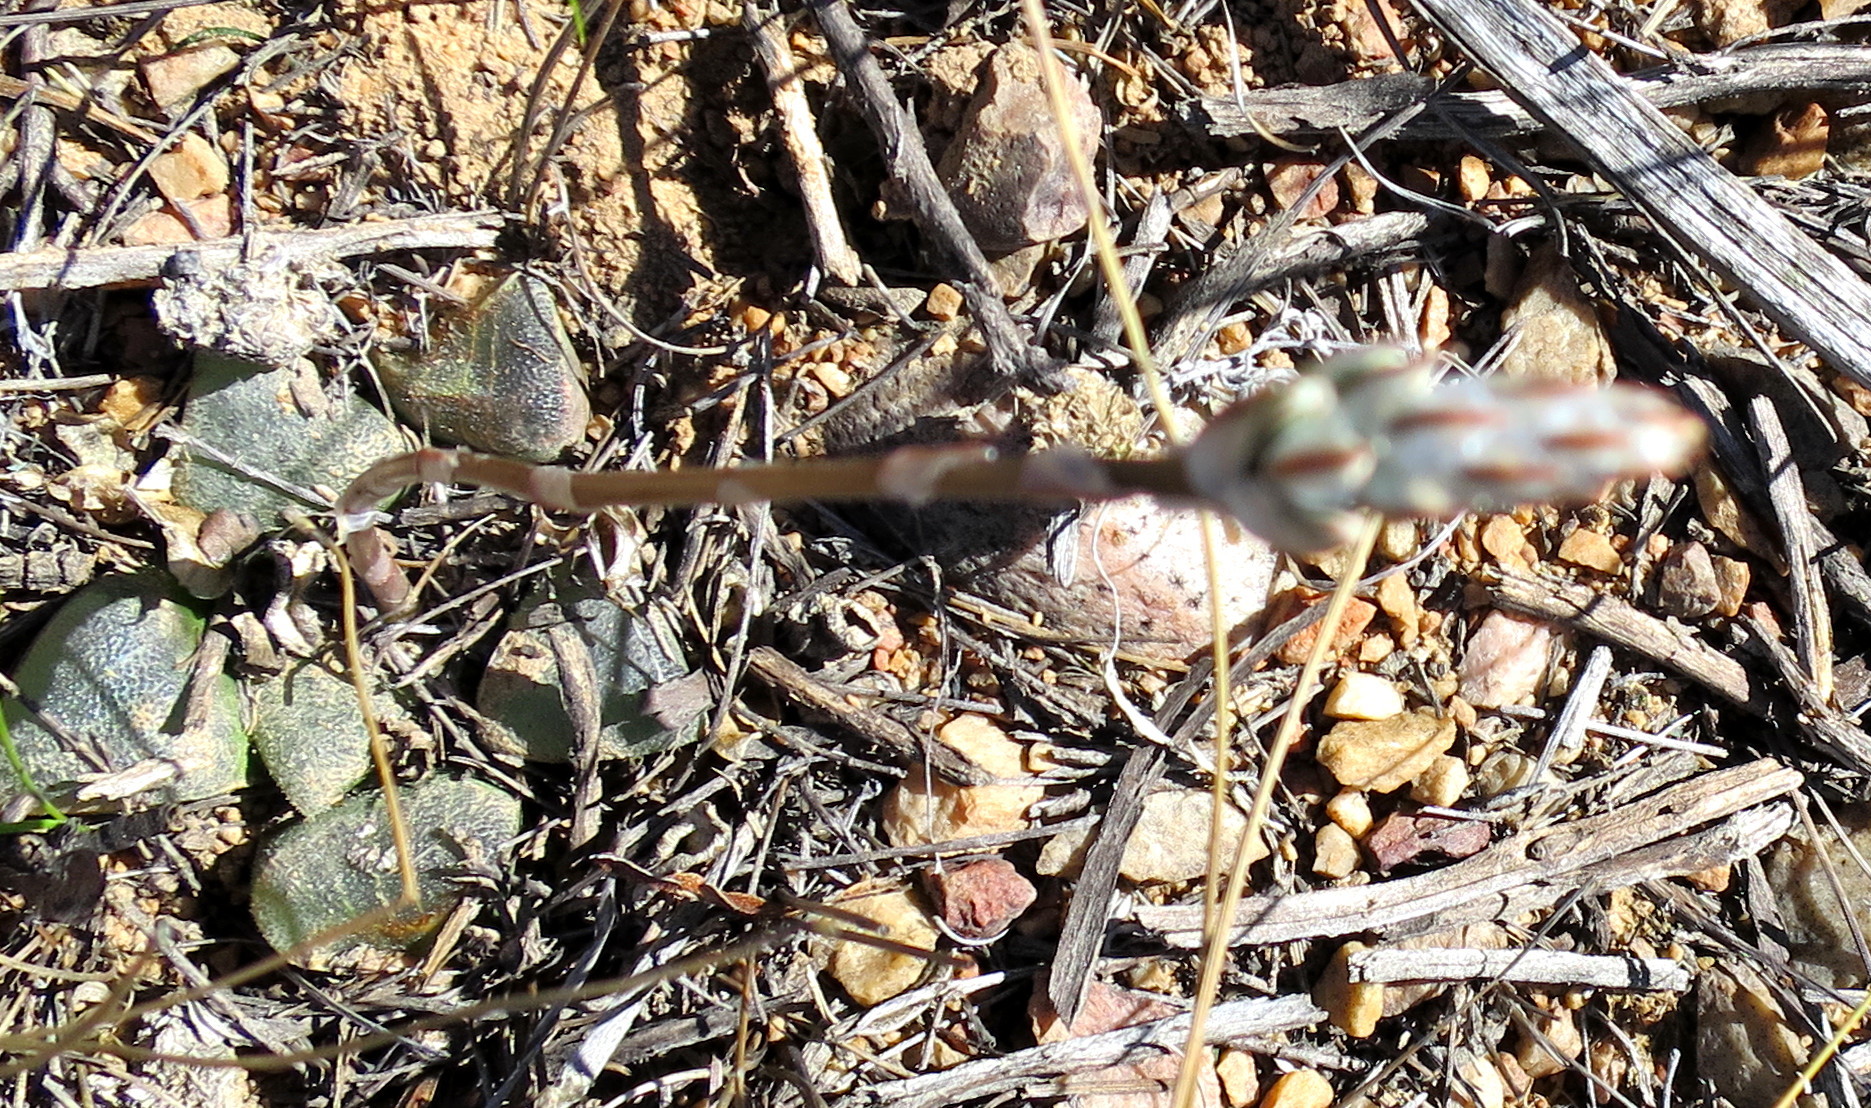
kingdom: Plantae
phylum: Tracheophyta
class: Liliopsida
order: Asparagales
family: Asphodelaceae
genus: Haworthia
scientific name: Haworthia bayeri
